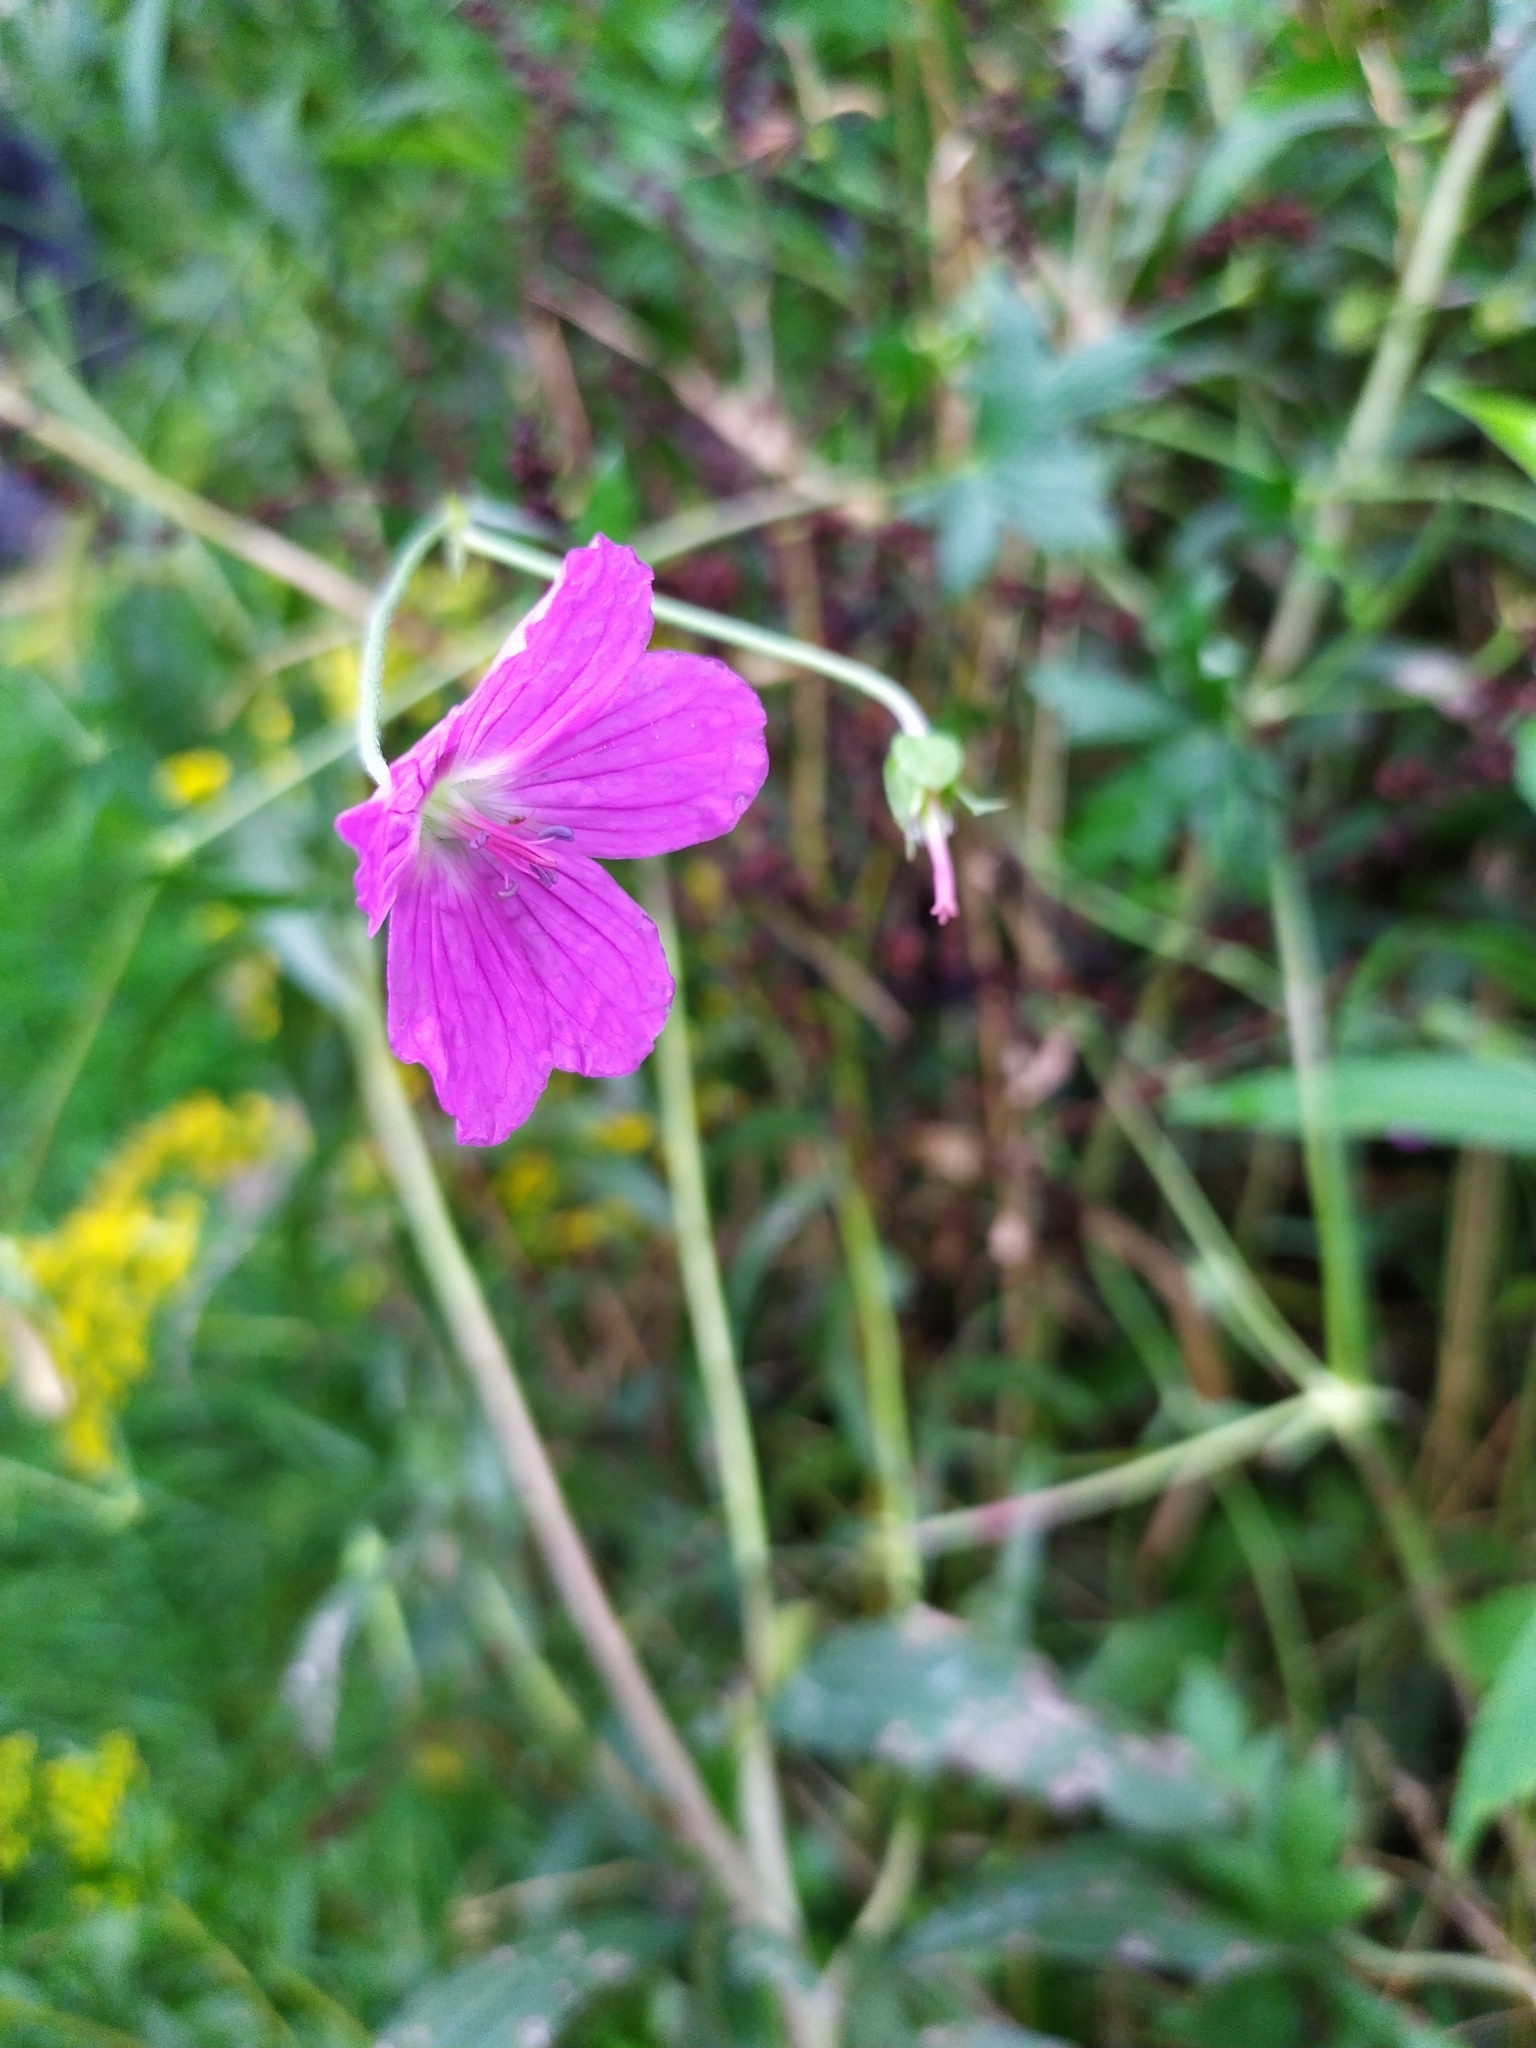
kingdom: Plantae
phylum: Tracheophyta
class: Magnoliopsida
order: Geraniales
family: Geraniaceae
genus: Geranium
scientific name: Geranium palustre
